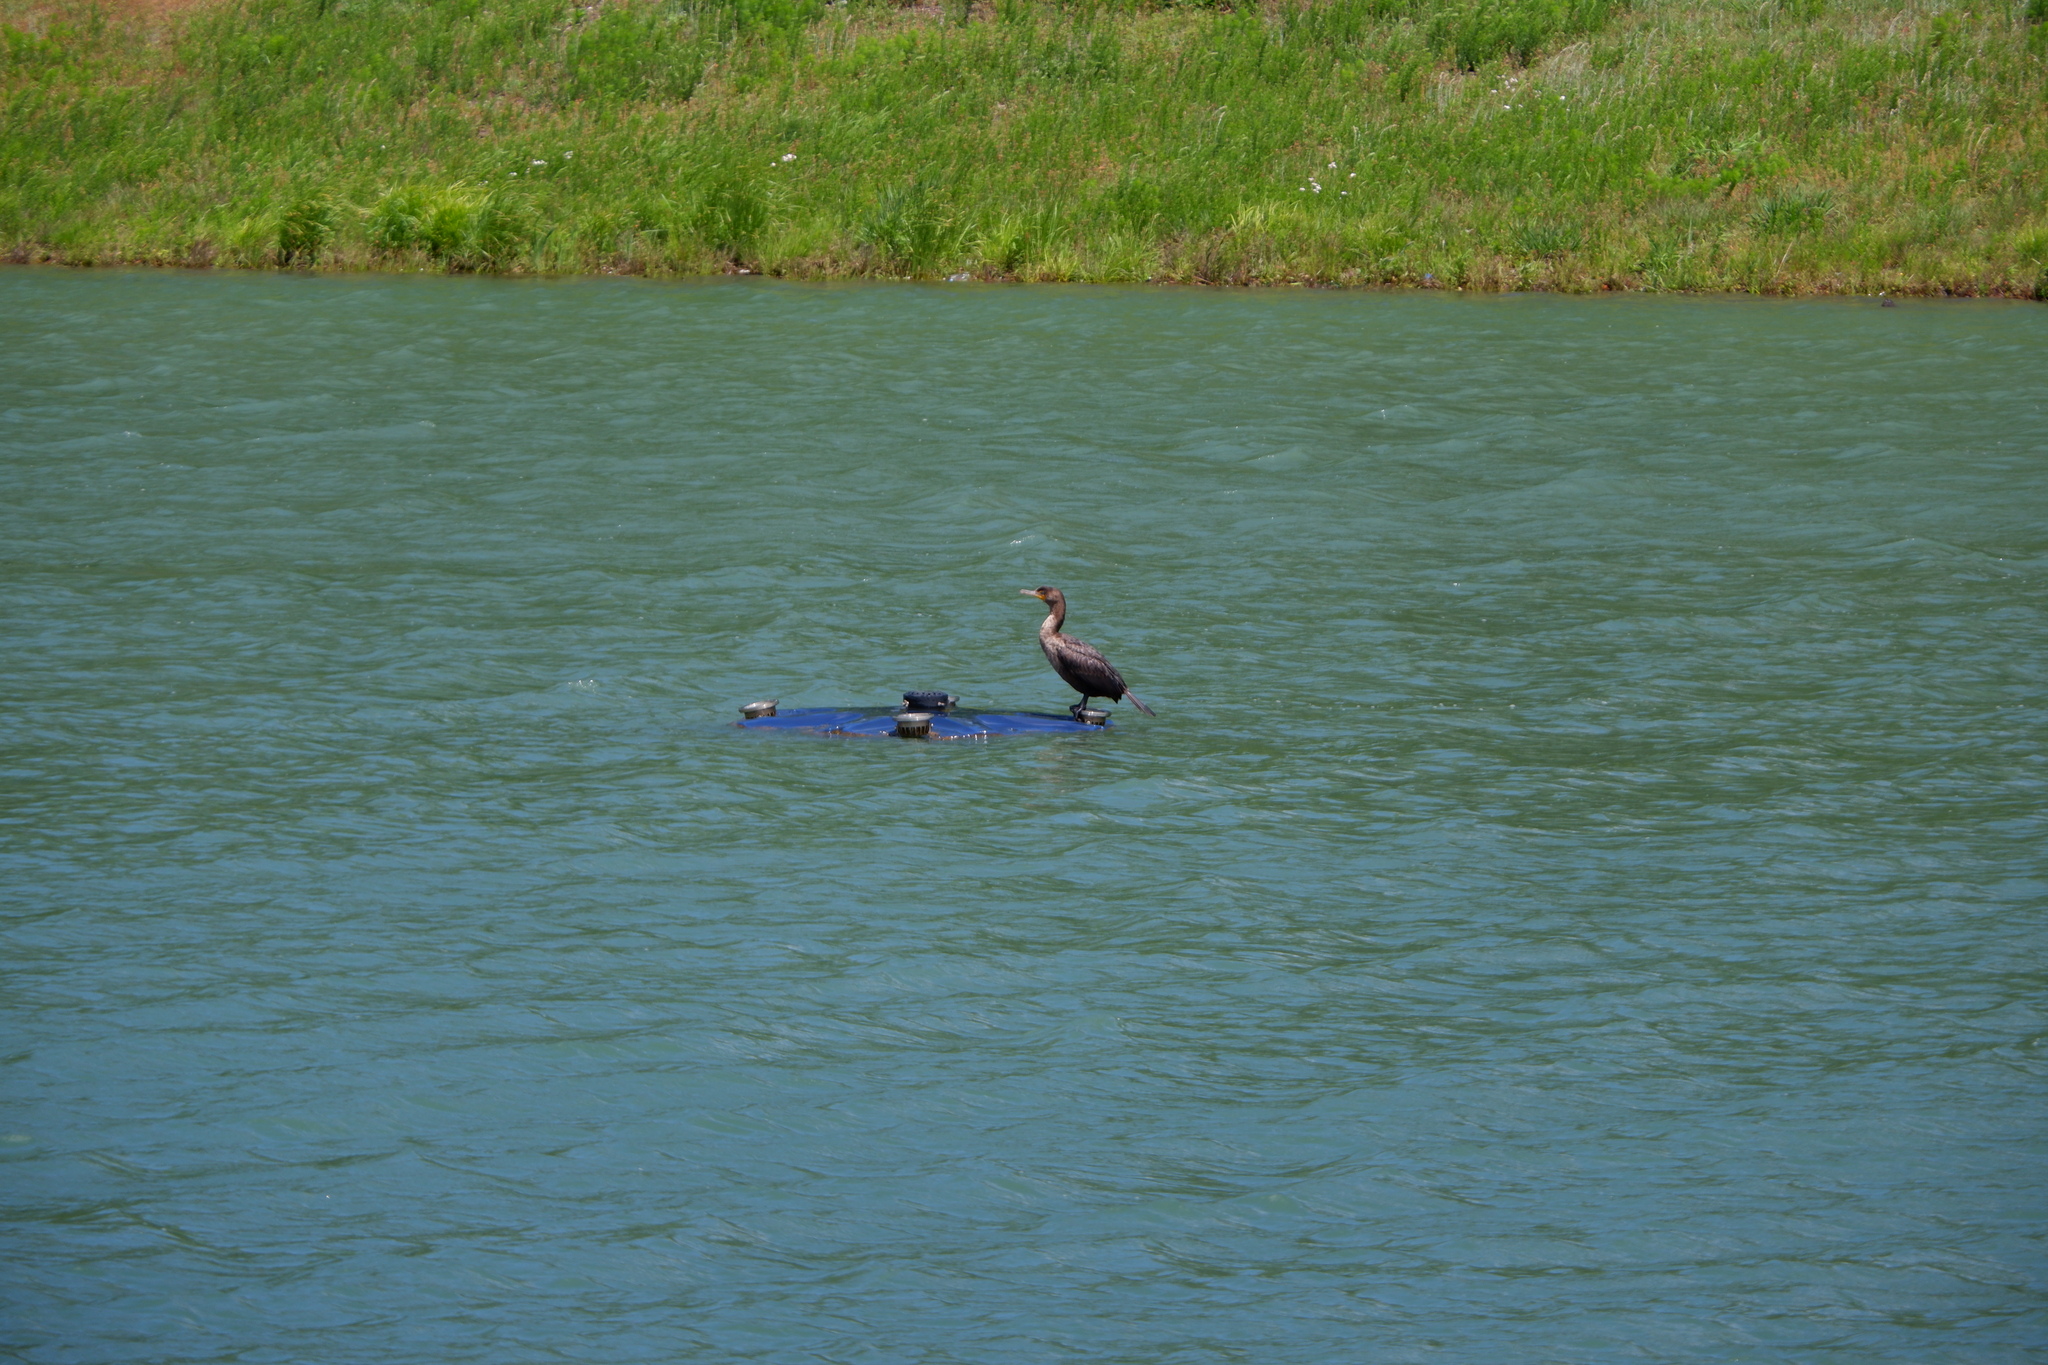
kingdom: Animalia
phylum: Chordata
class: Aves
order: Suliformes
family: Phalacrocoracidae
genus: Phalacrocorax
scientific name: Phalacrocorax auritus
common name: Double-crested cormorant
